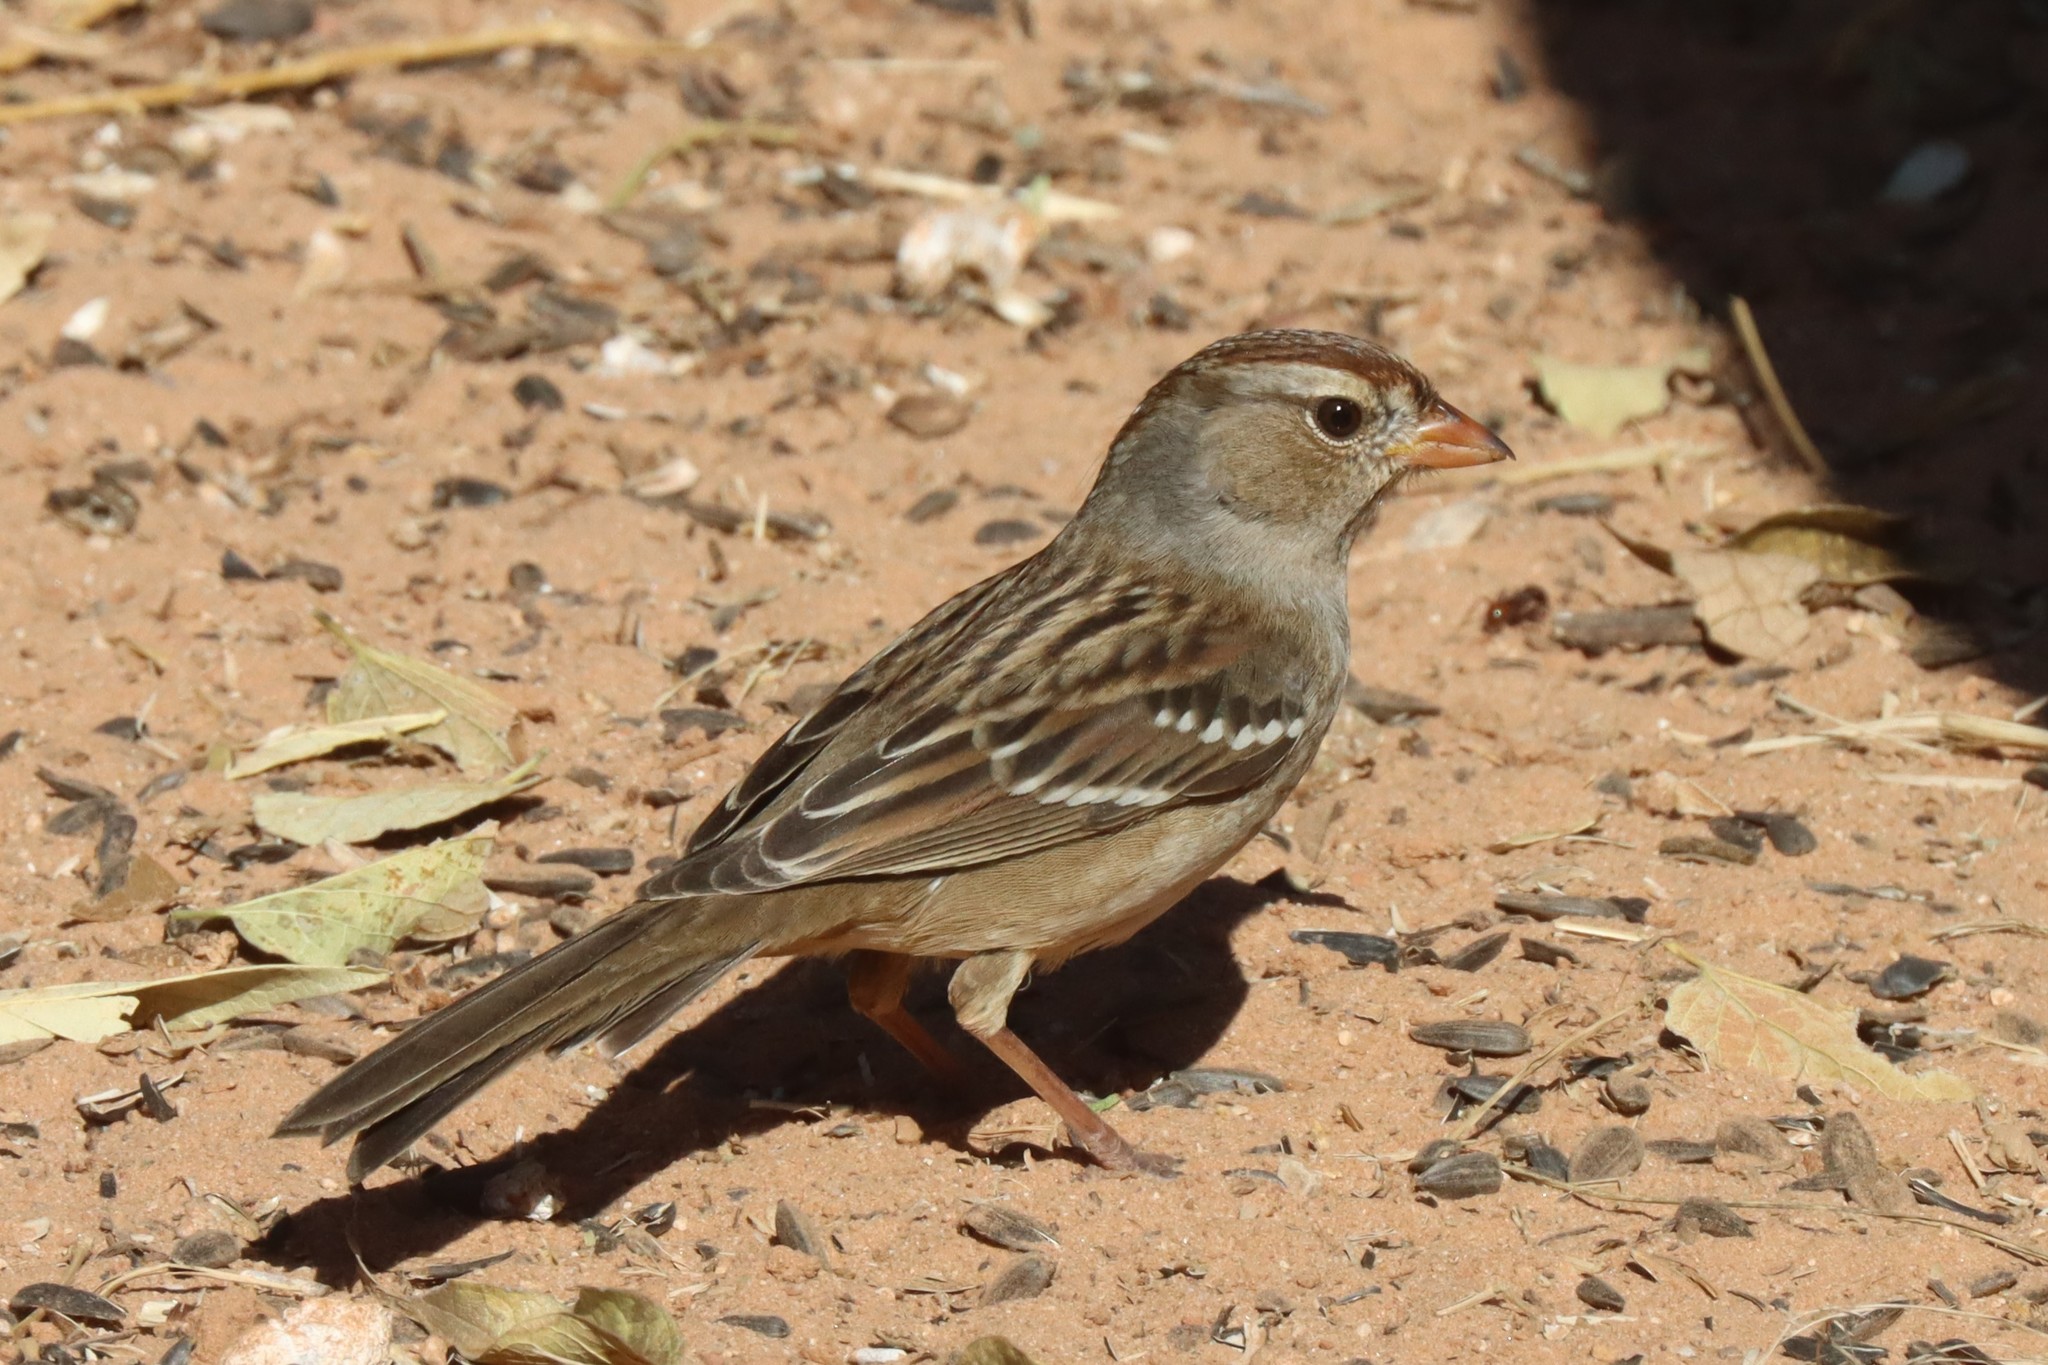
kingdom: Animalia
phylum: Chordata
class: Aves
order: Passeriformes
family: Passerellidae
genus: Zonotrichia
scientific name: Zonotrichia leucophrys
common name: White-crowned sparrow
